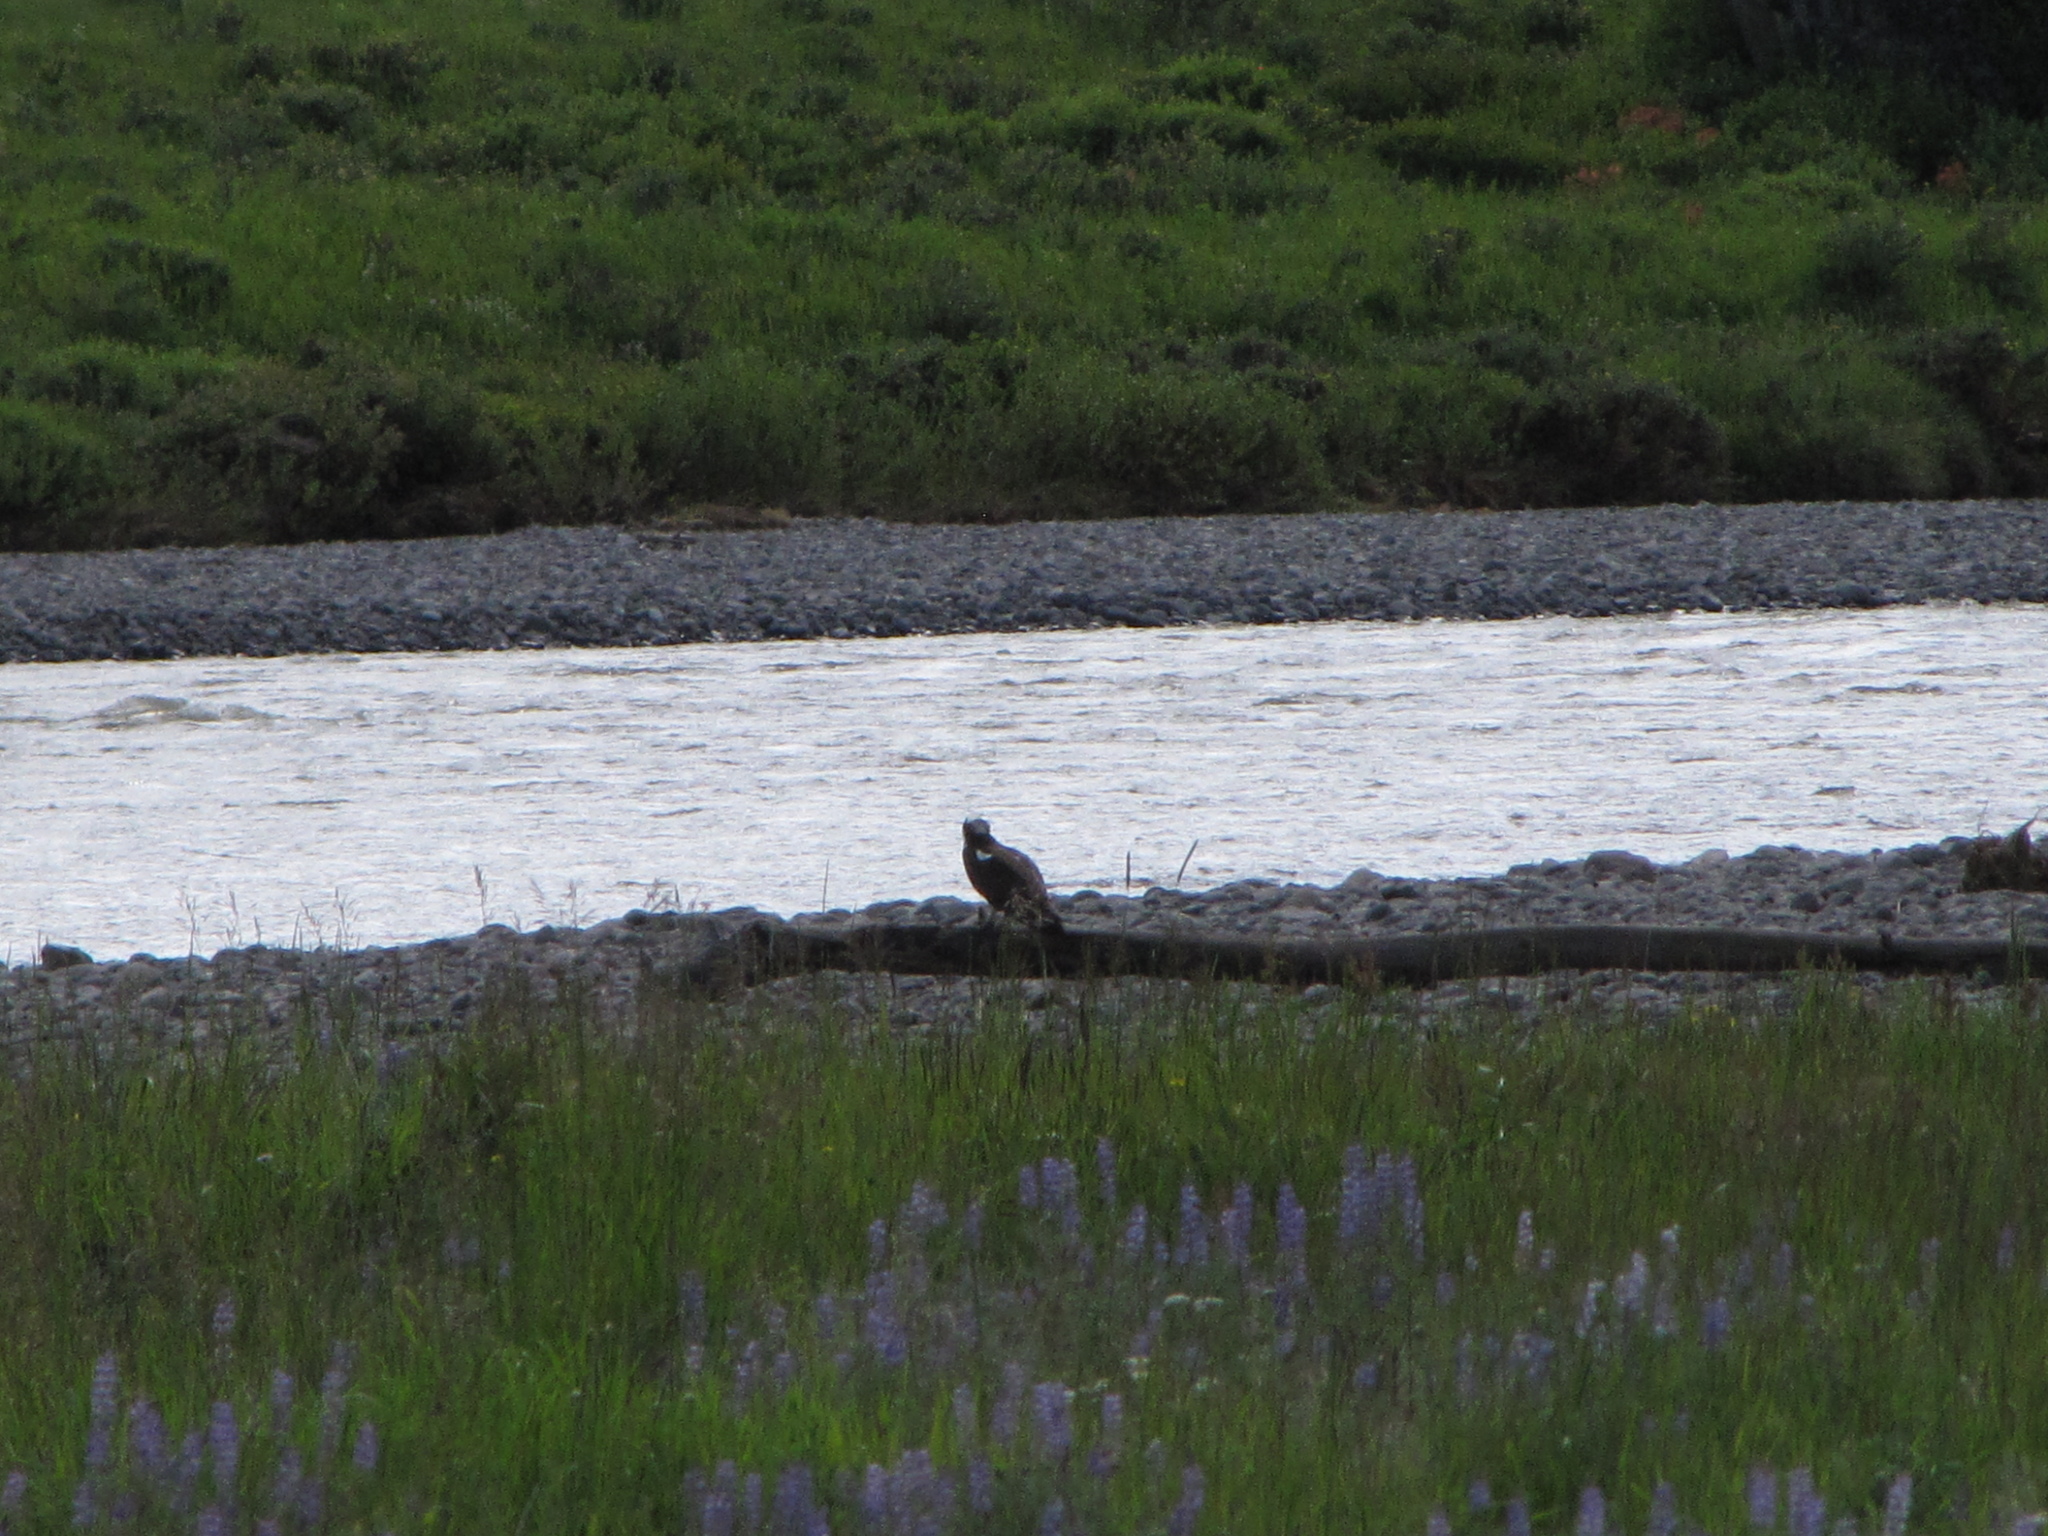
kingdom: Animalia
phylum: Chordata
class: Aves
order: Accipitriformes
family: Pandionidae
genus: Pandion
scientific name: Pandion haliaetus
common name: Osprey
